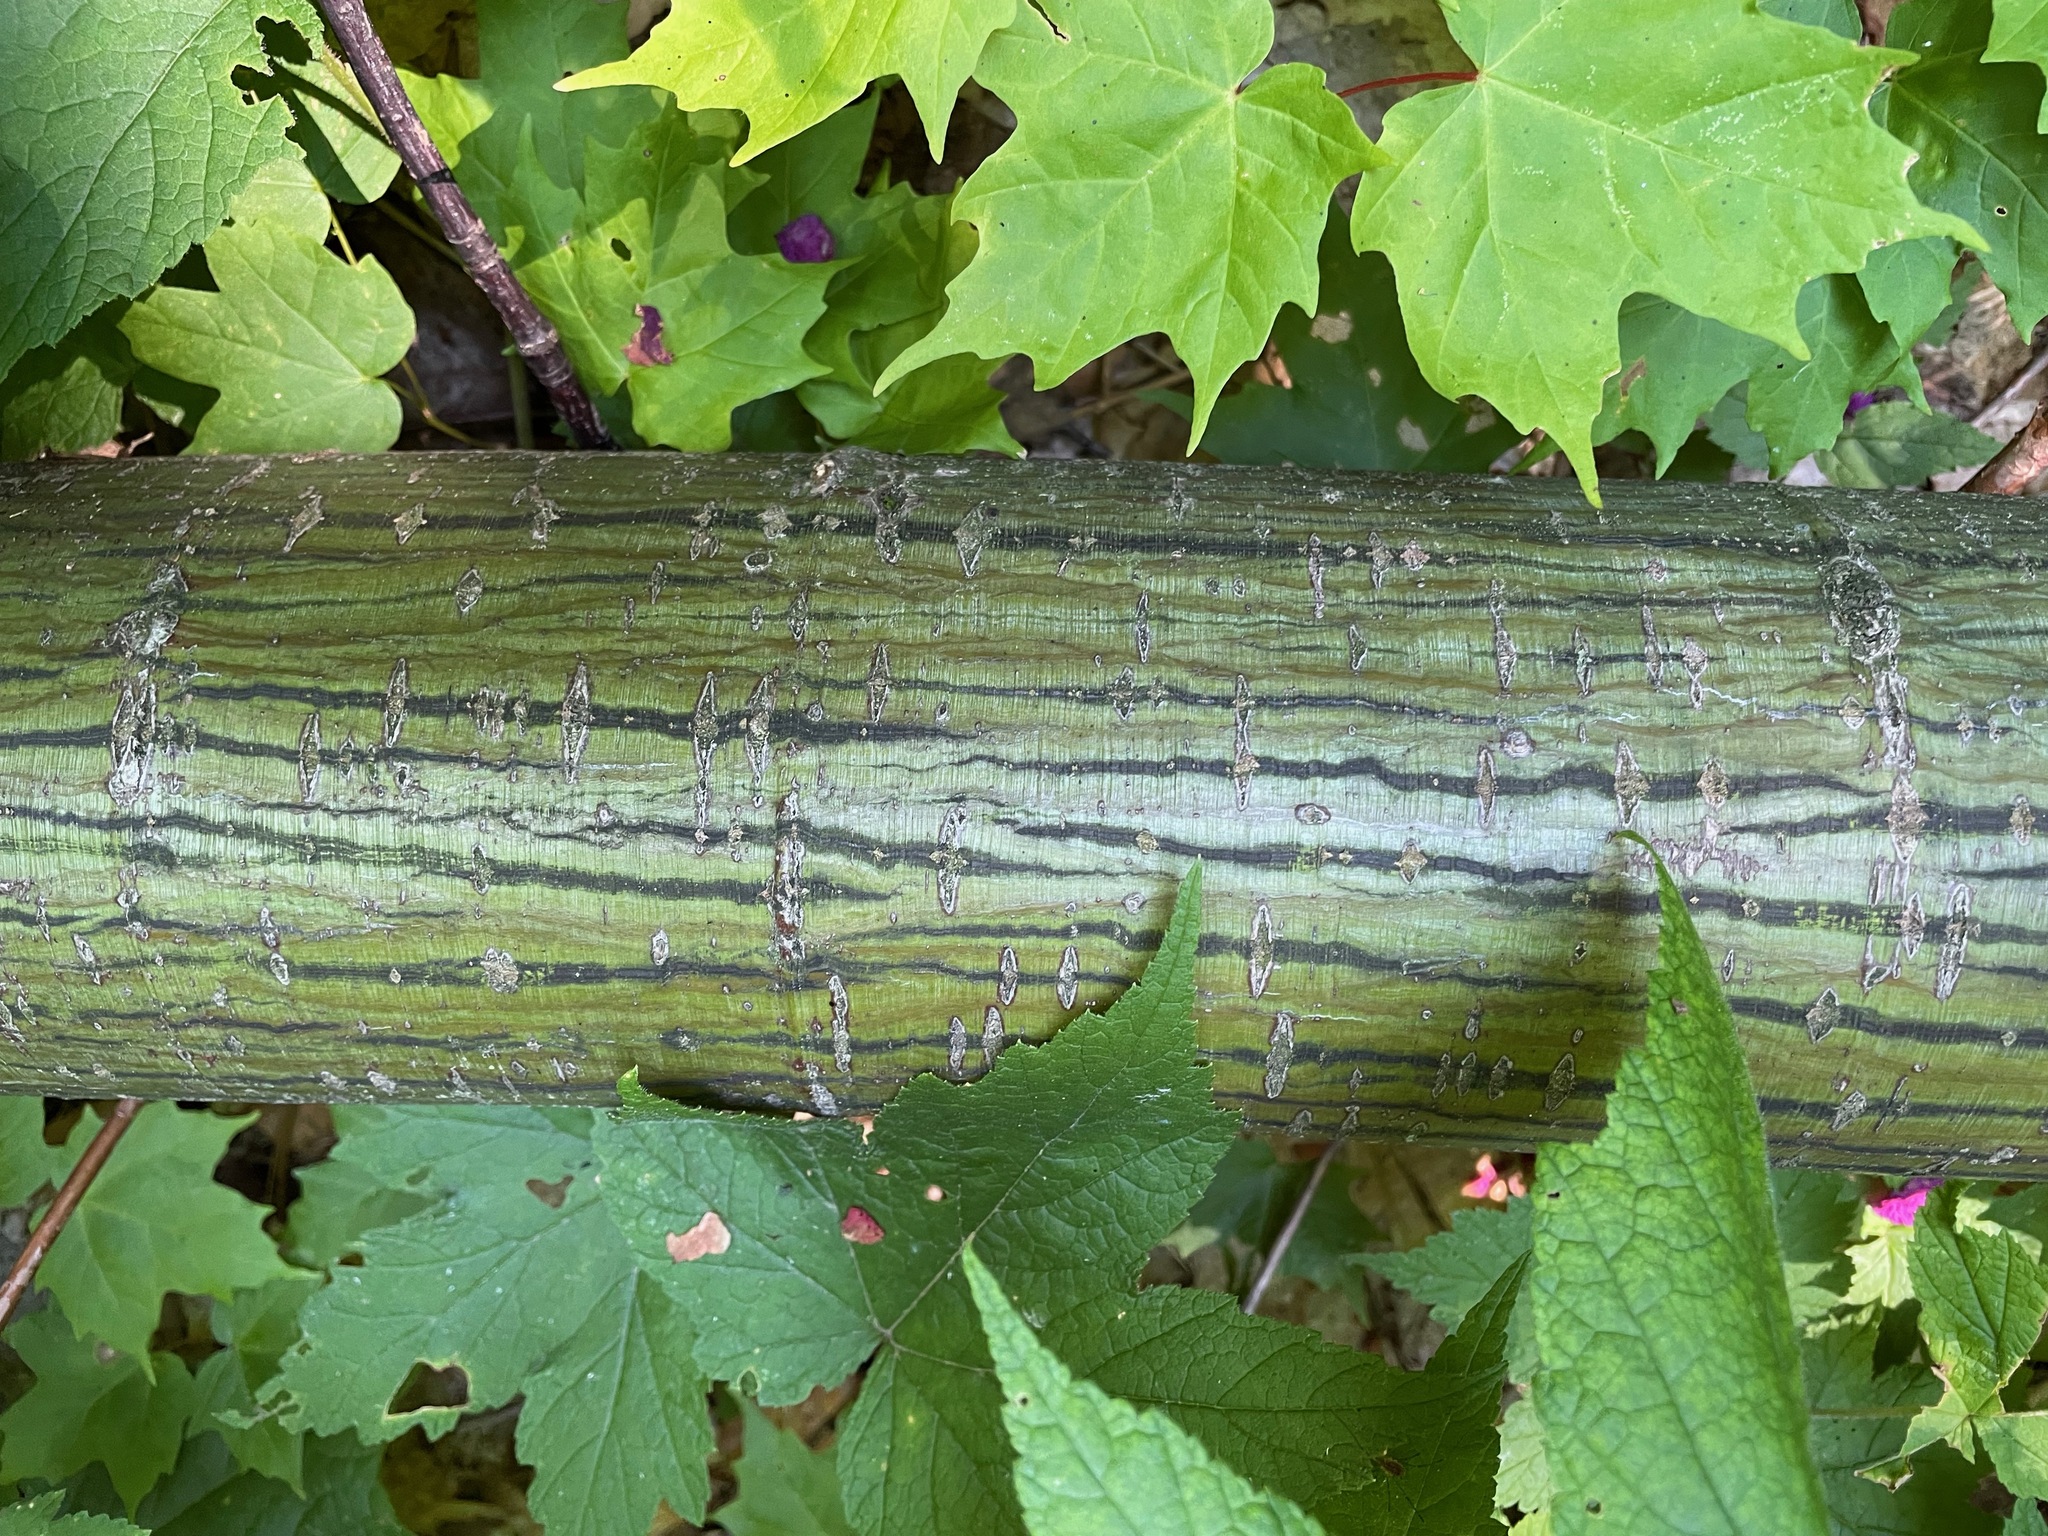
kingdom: Plantae
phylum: Tracheophyta
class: Magnoliopsida
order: Sapindales
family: Sapindaceae
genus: Acer
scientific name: Acer pensylvanicum
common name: Moosewood
